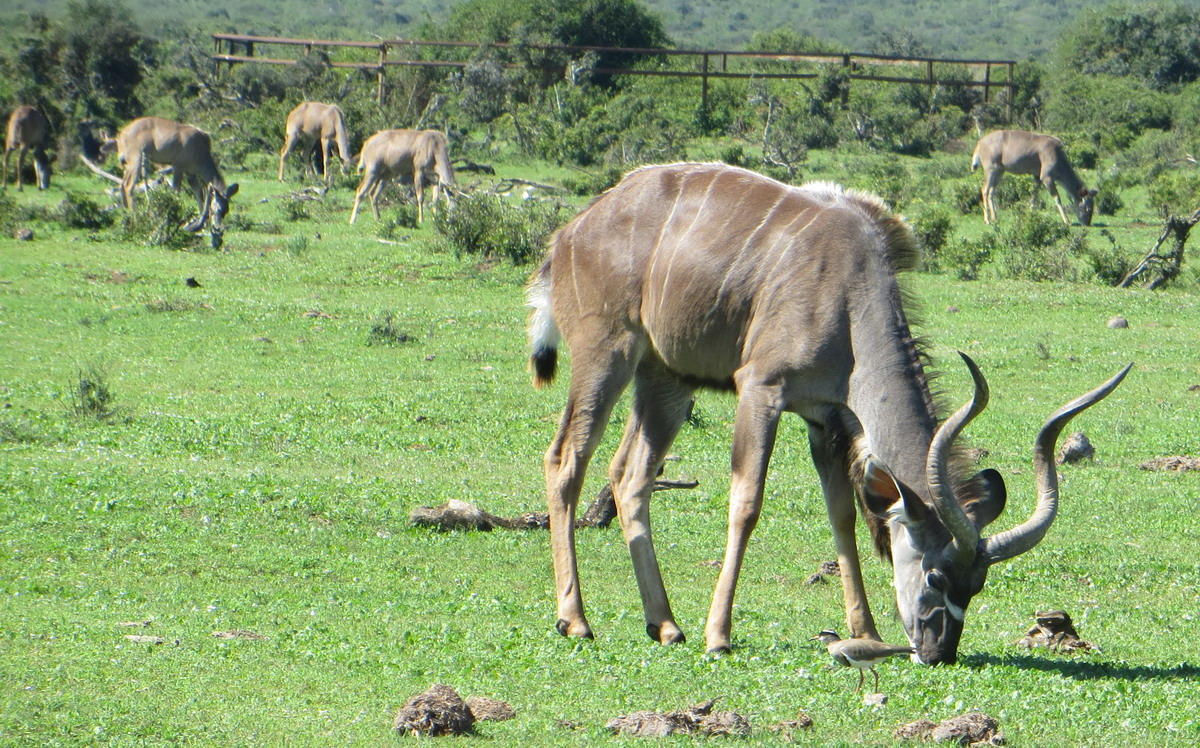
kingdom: Animalia
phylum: Chordata
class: Mammalia
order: Artiodactyla
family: Bovidae
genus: Tragelaphus
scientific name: Tragelaphus strepsiceros
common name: Greater kudu
